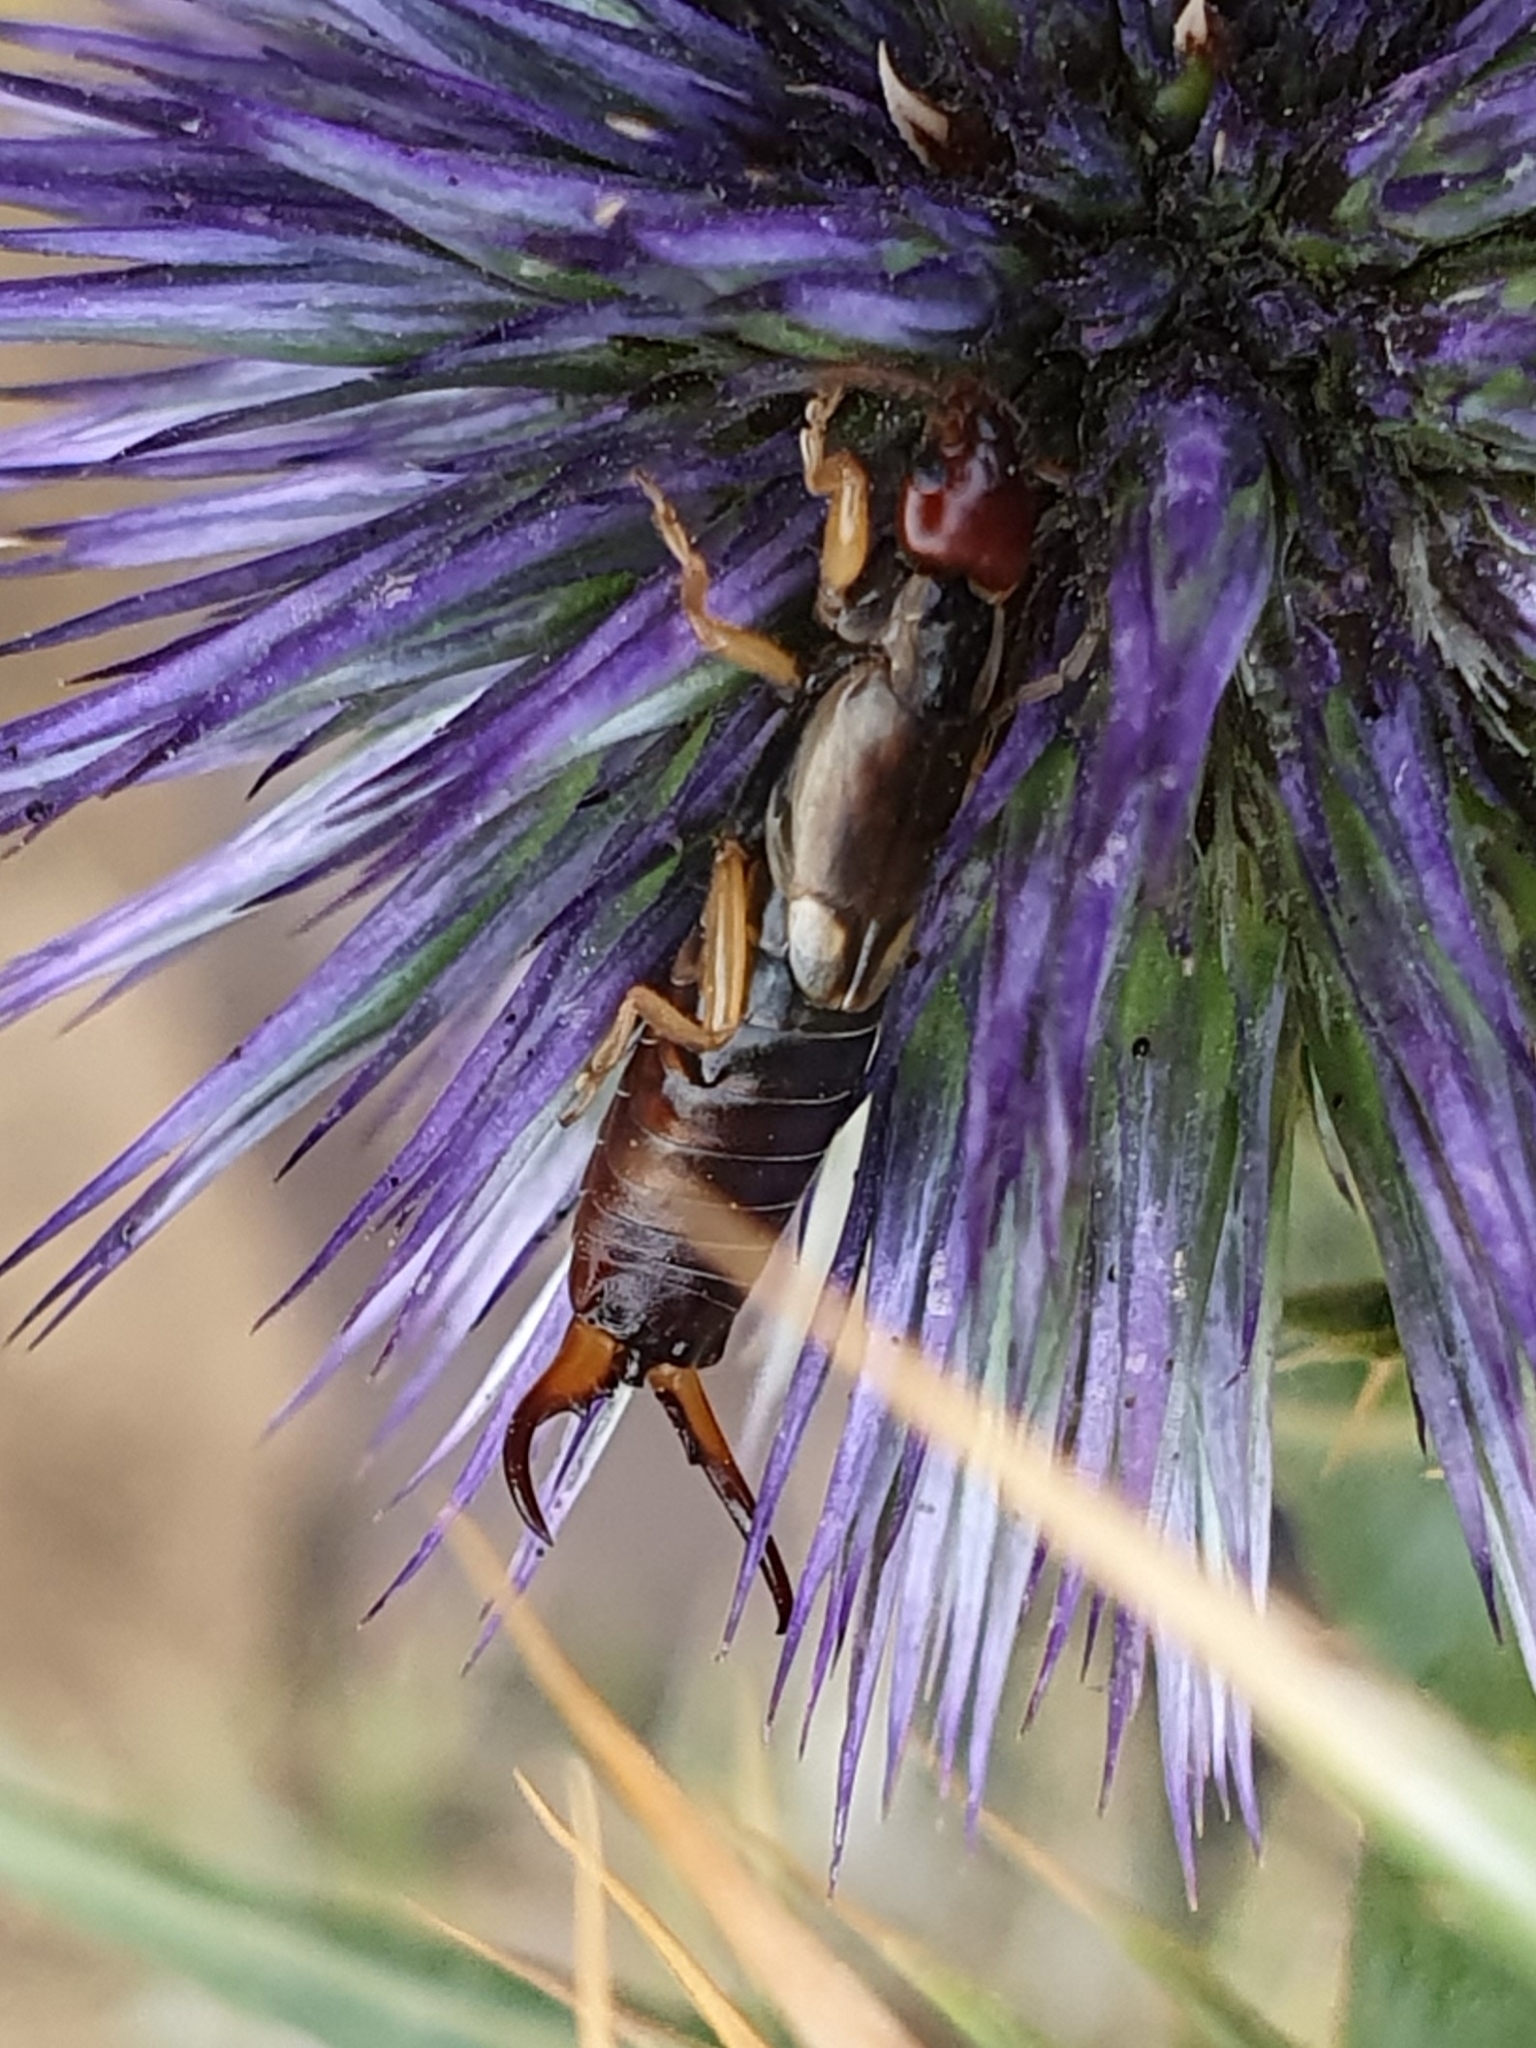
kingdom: Animalia
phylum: Arthropoda
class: Insecta
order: Dermaptera
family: Forficulidae
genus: Forficula
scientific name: Forficula
